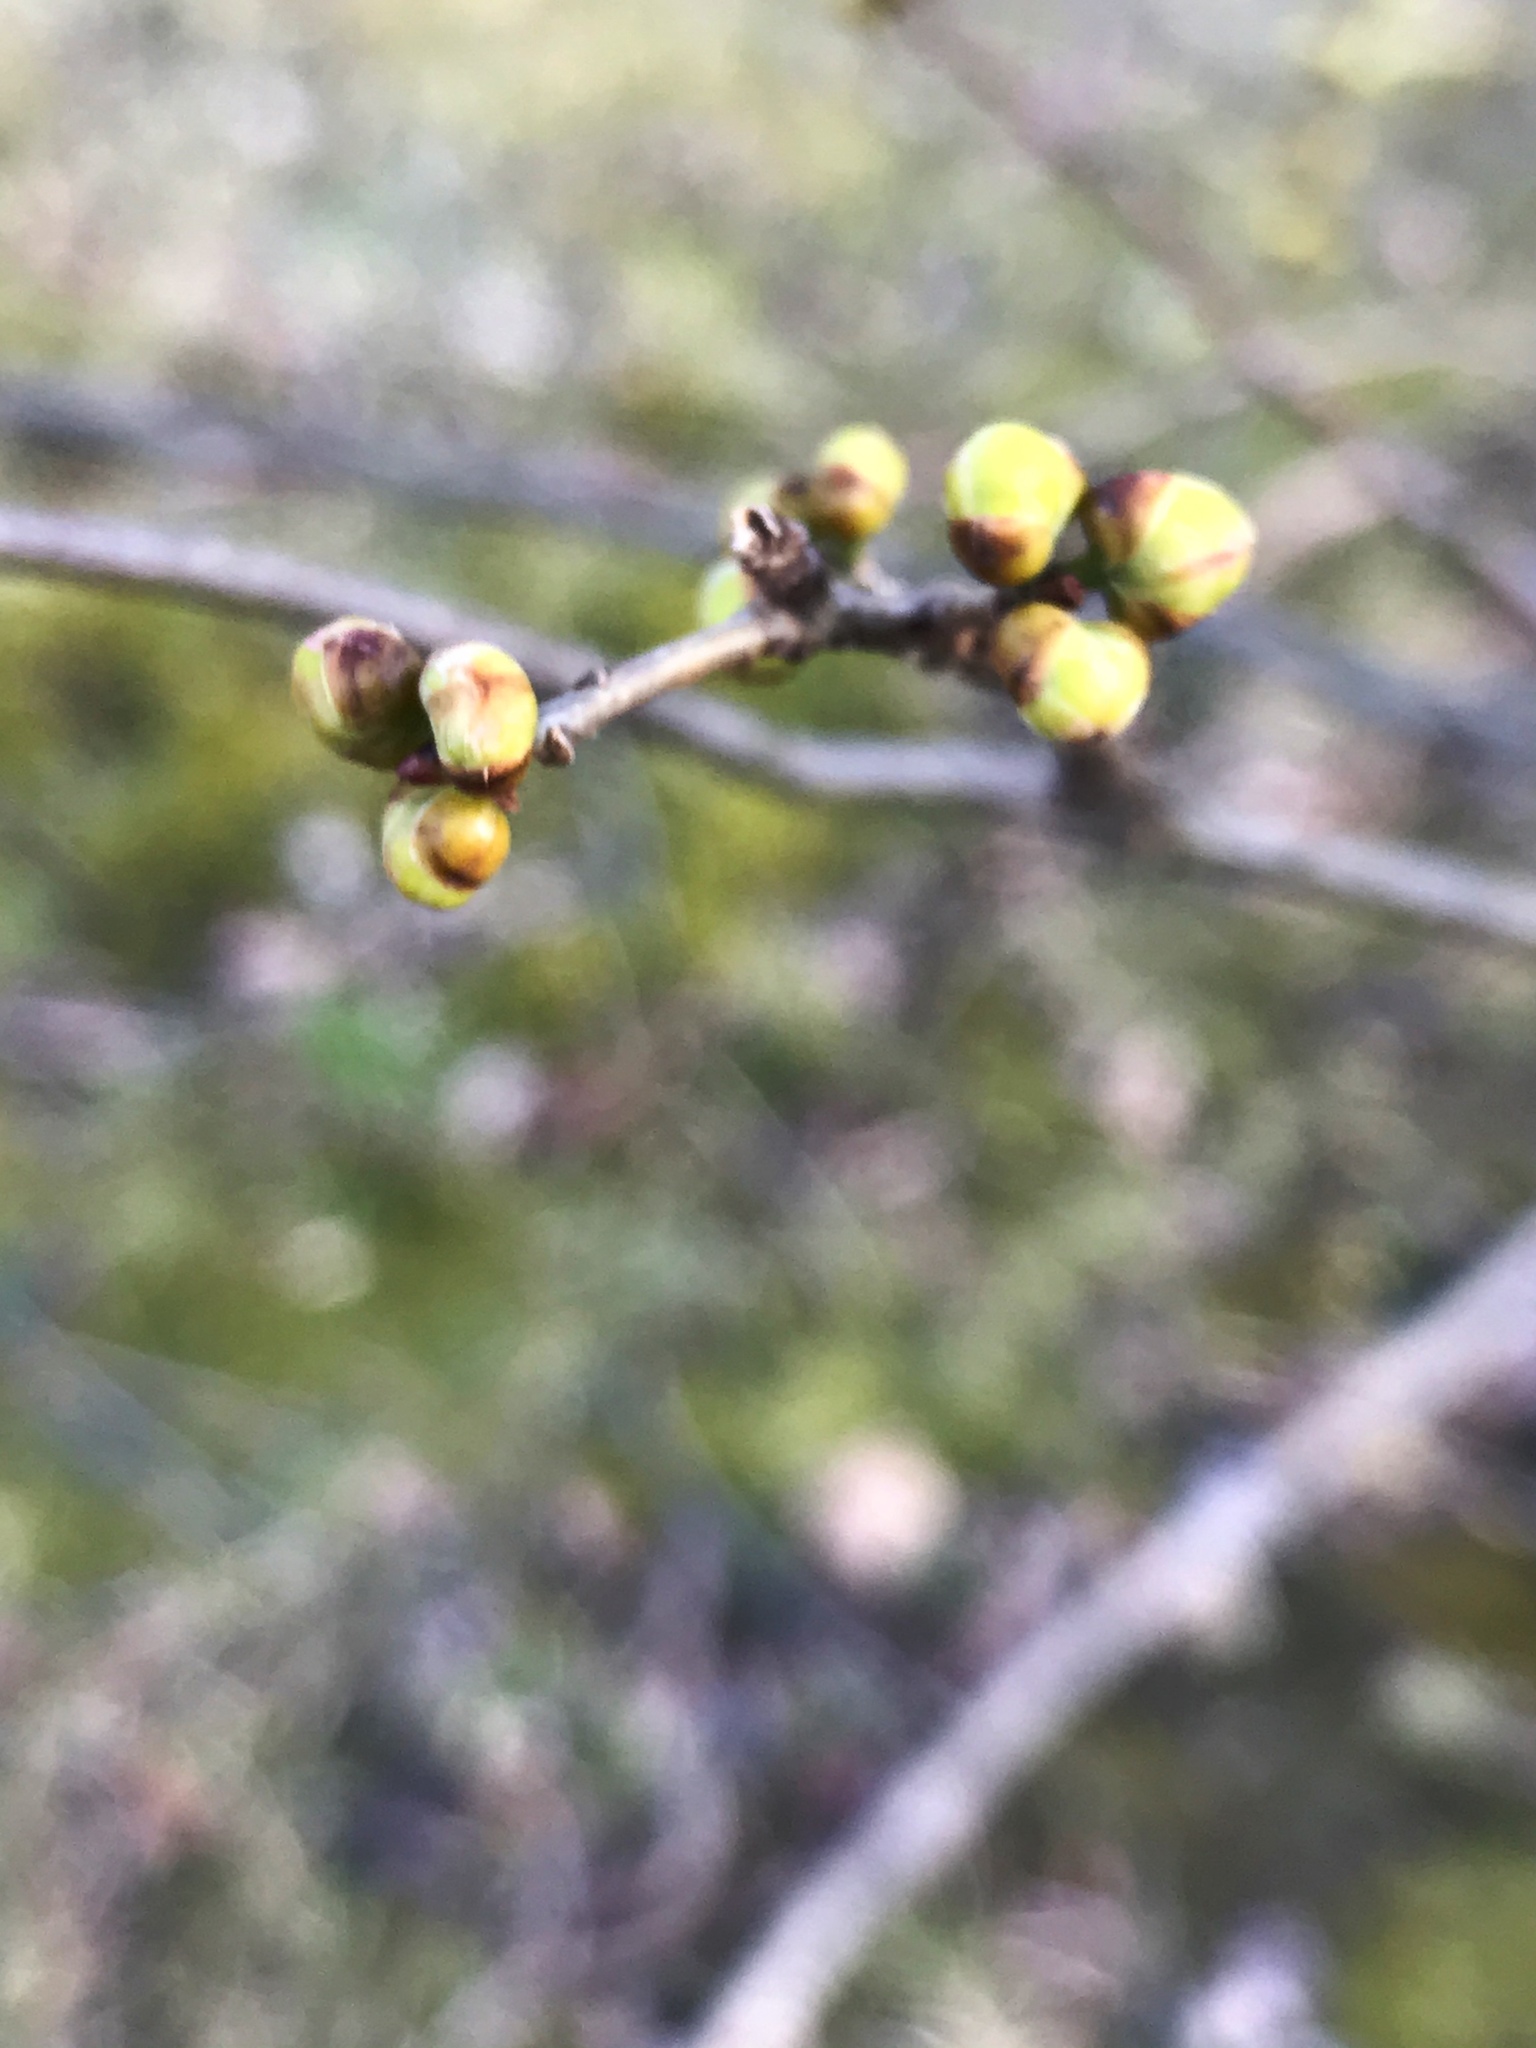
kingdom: Plantae
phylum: Tracheophyta
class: Magnoliopsida
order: Laurales
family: Lauraceae
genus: Lindera
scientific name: Lindera benzoin
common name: Spicebush
